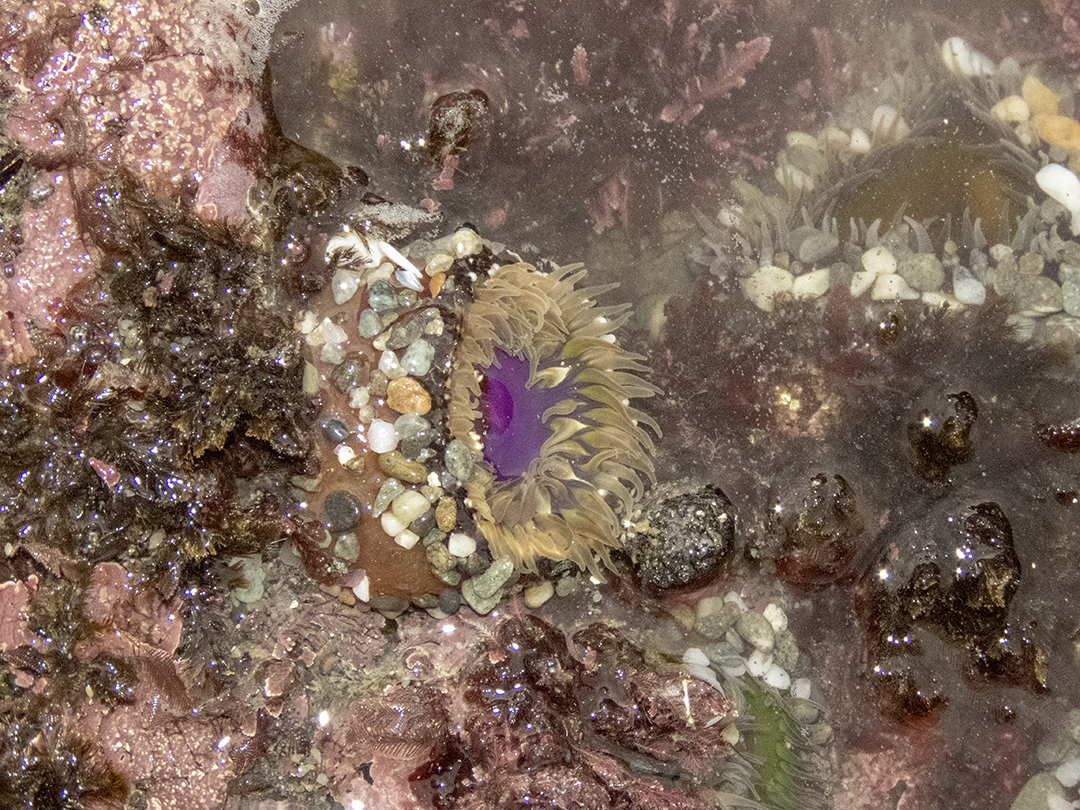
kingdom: Animalia
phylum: Cnidaria
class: Anthozoa
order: Actiniaria
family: Actiniidae
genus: Oulactis
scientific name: Oulactis magna
